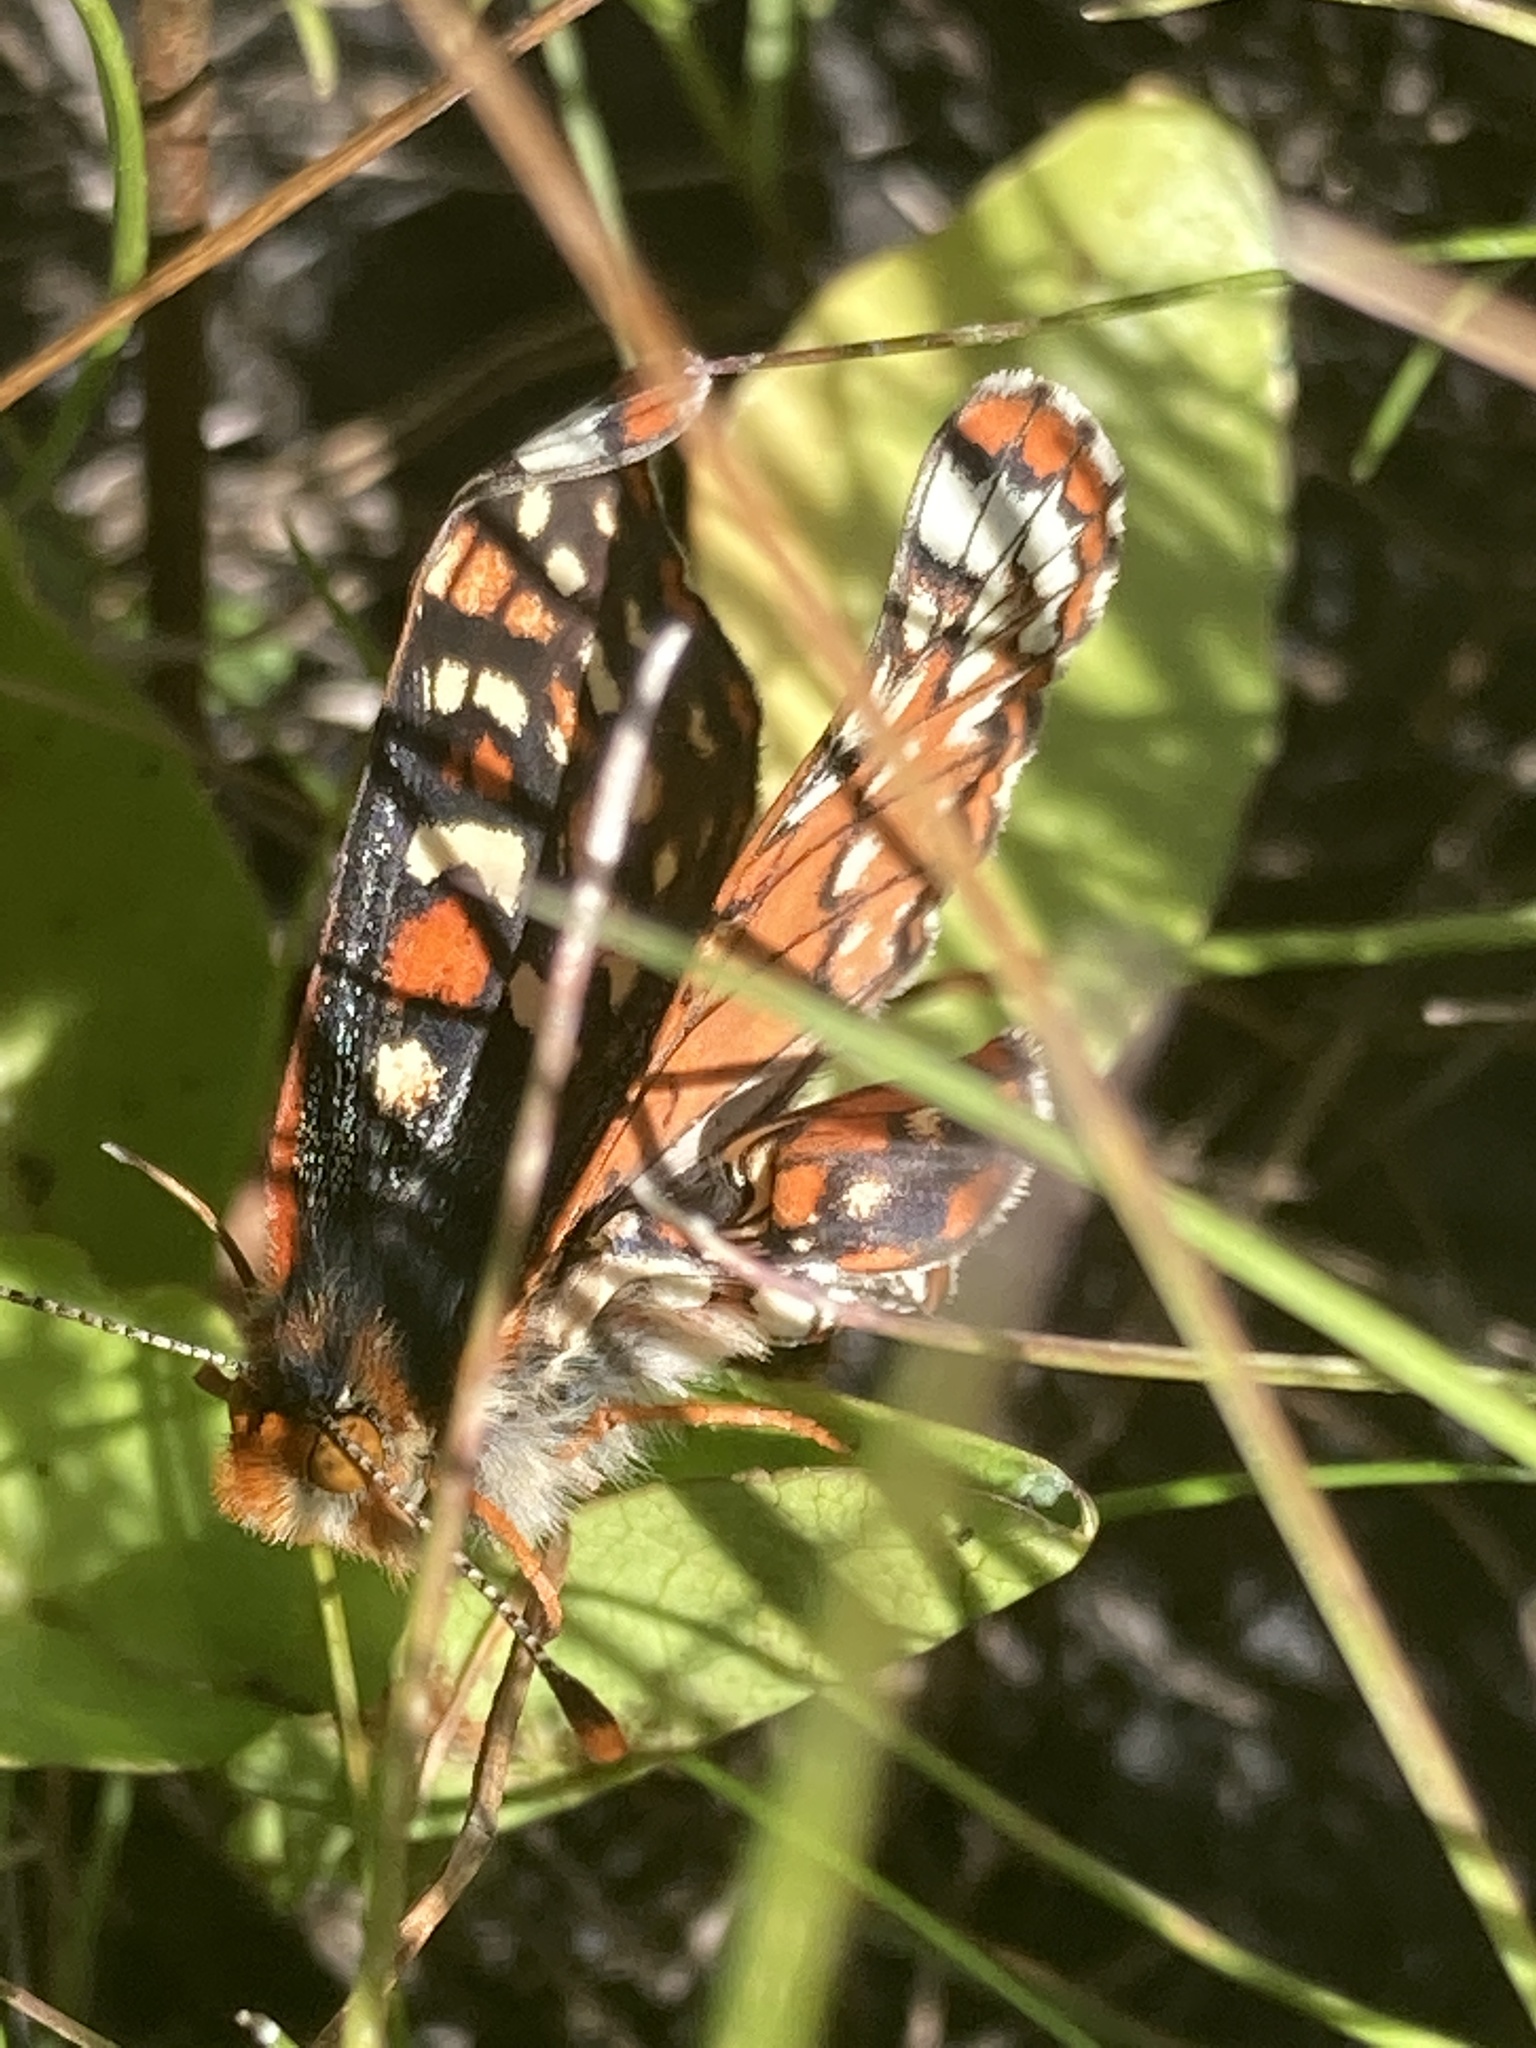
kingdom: Animalia
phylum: Arthropoda
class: Insecta
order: Lepidoptera
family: Nymphalidae
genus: Occidryas
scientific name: Occidryas editha
